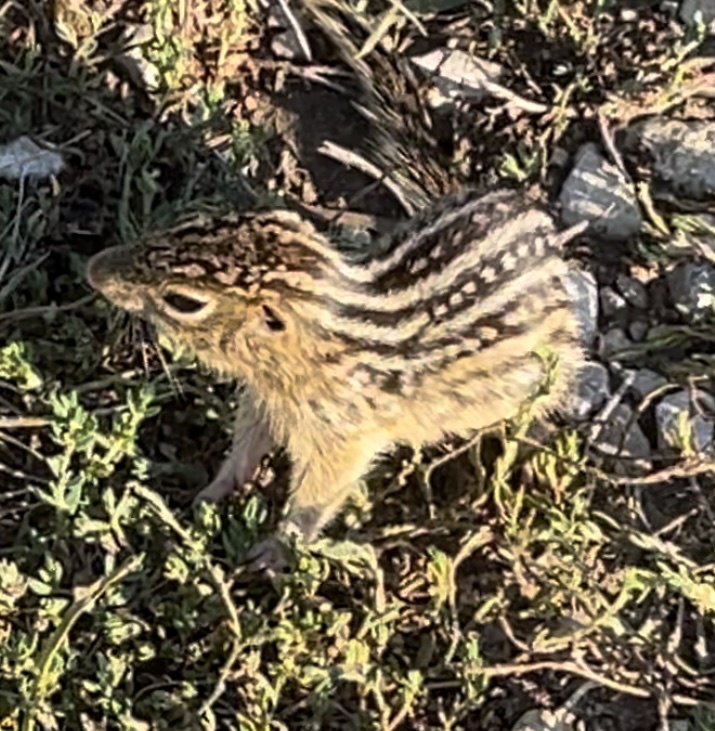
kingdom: Animalia
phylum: Chordata
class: Mammalia
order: Rodentia
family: Sciuridae
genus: Ictidomys
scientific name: Ictidomys tridecemlineatus
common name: Thirteen-lined ground squirrel
